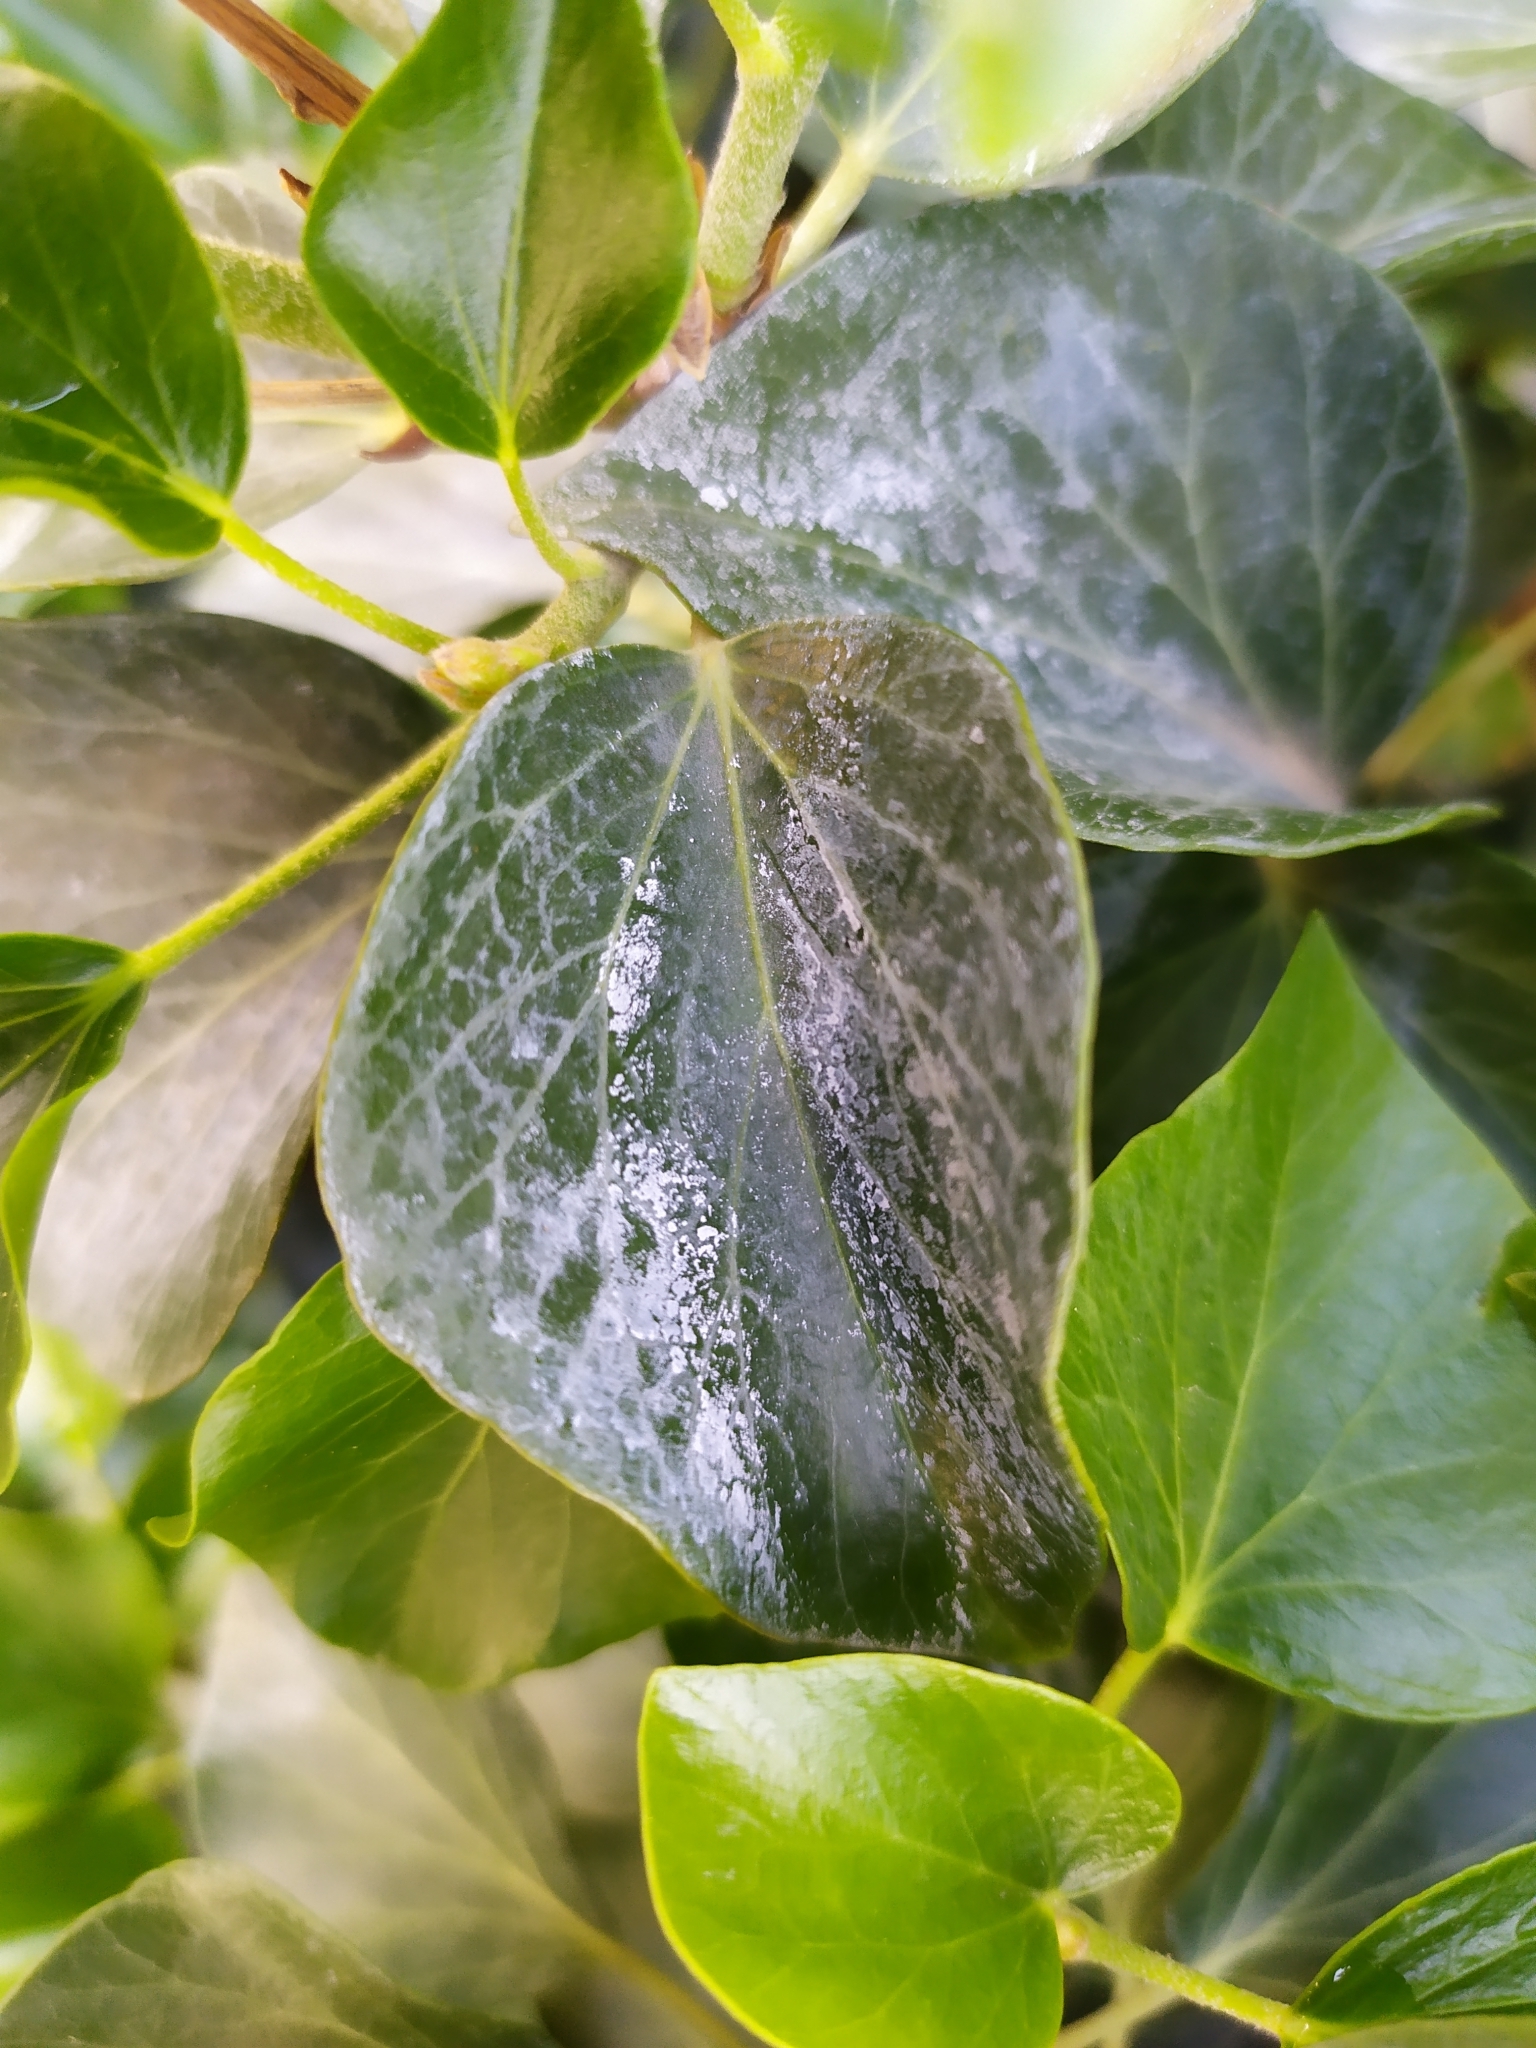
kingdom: Plantae
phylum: Tracheophyta
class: Magnoliopsida
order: Apiales
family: Araliaceae
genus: Hedera
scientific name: Hedera helix
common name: Ivy
